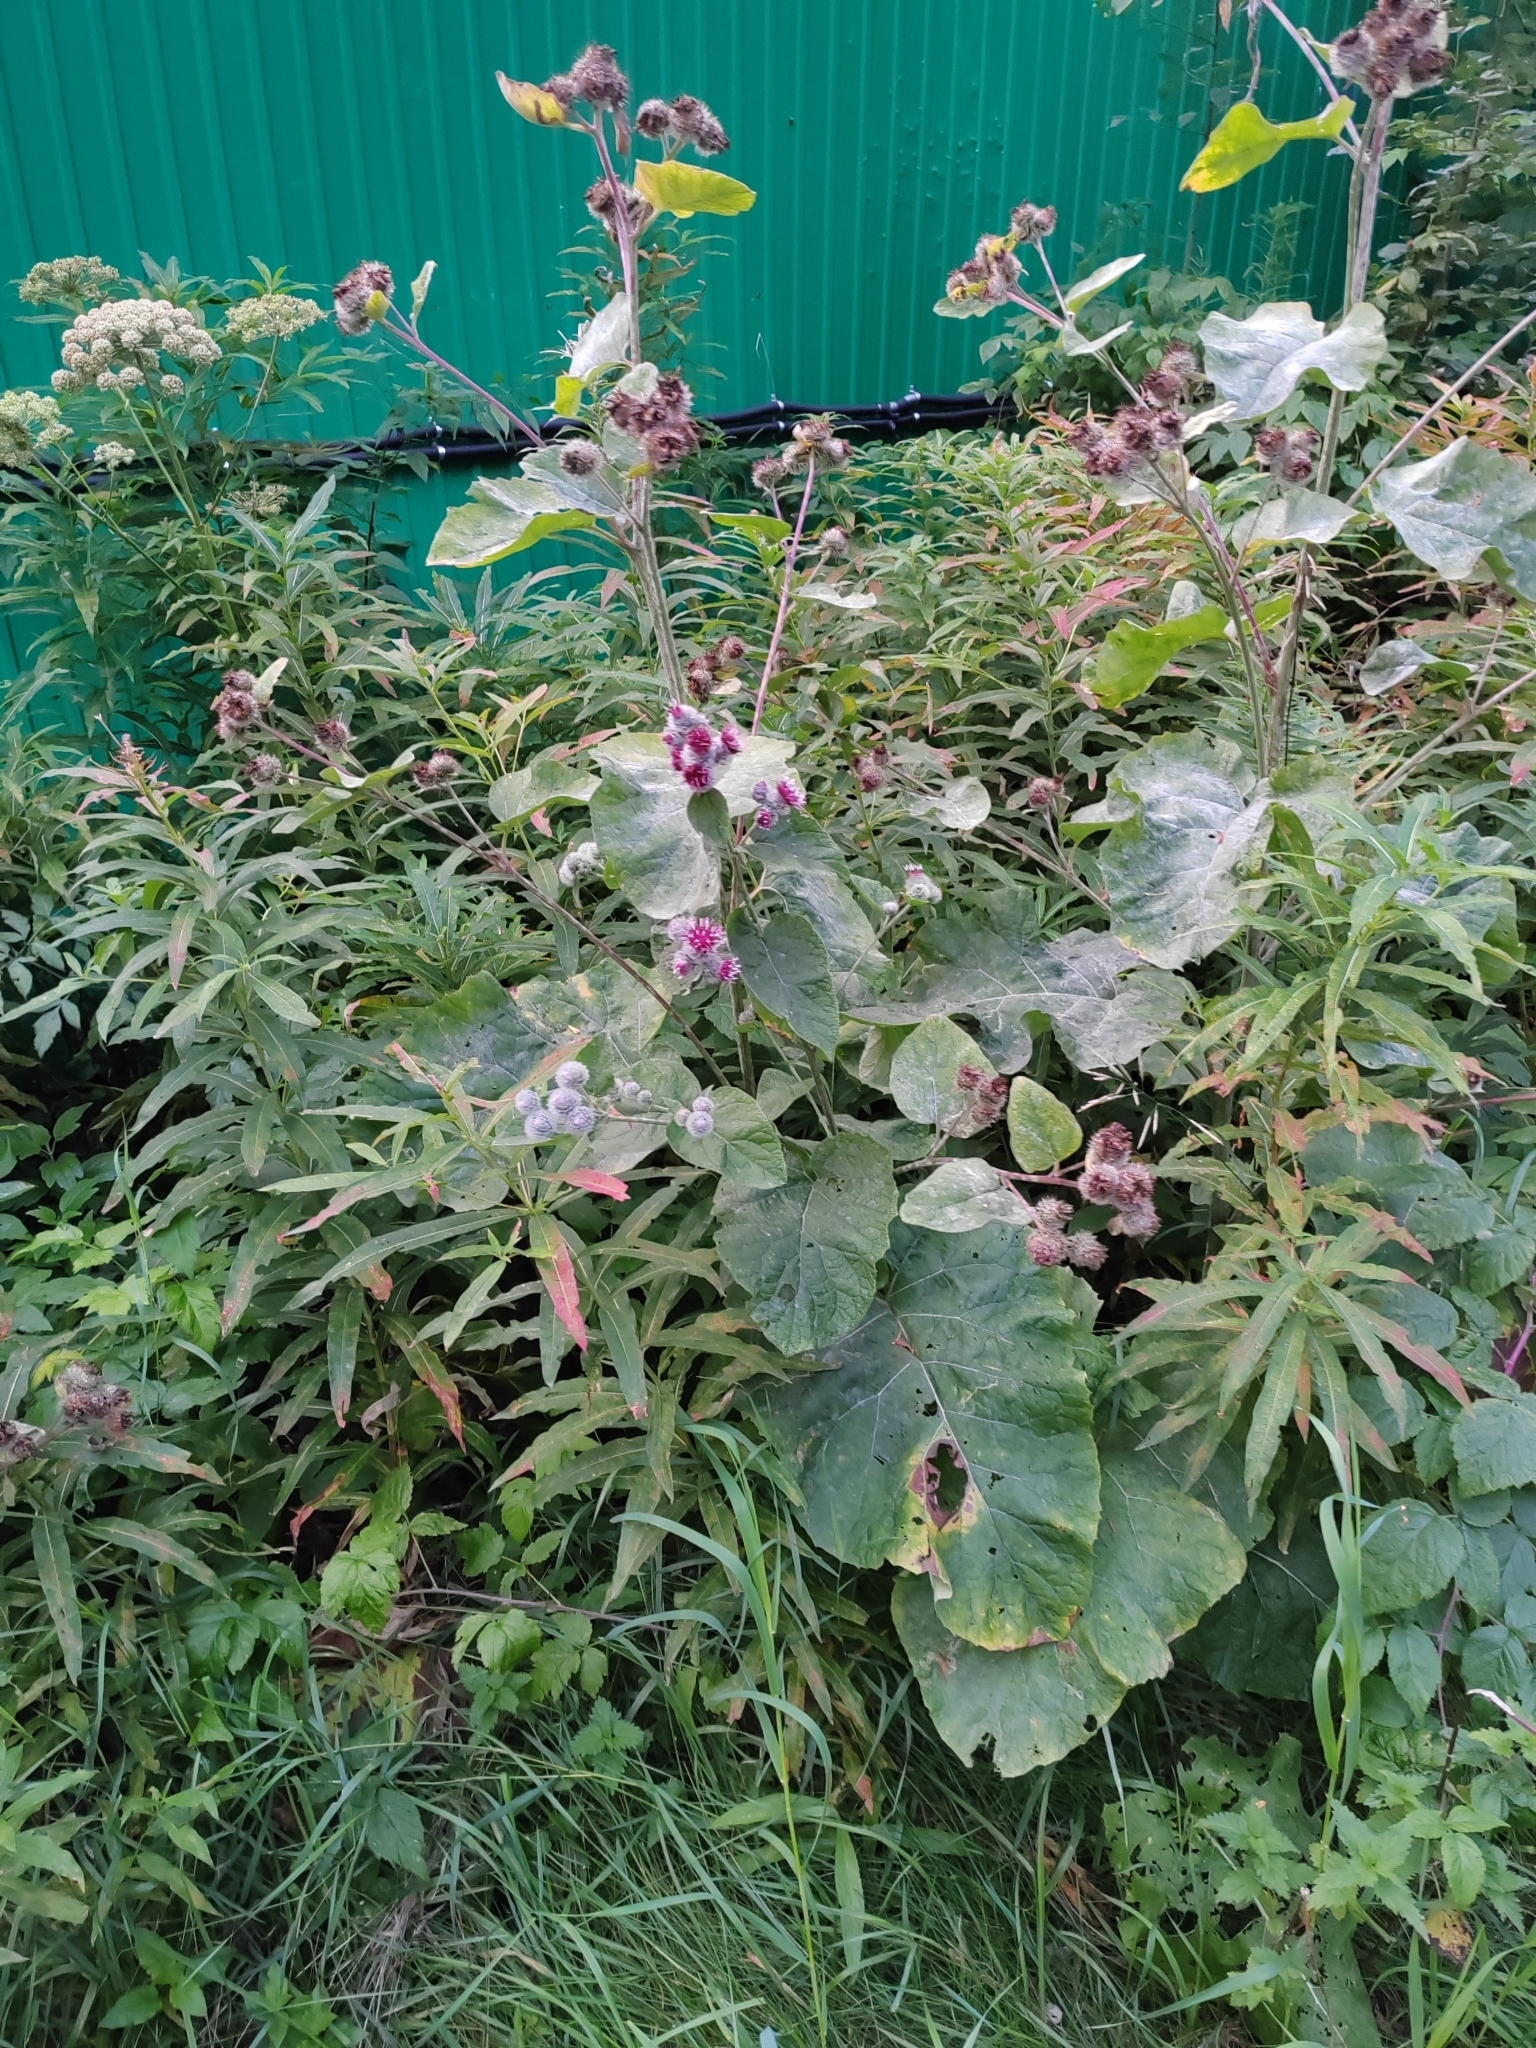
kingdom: Plantae
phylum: Tracheophyta
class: Magnoliopsida
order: Asterales
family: Asteraceae
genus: Arctium
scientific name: Arctium tomentosum
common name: Woolly burdock
